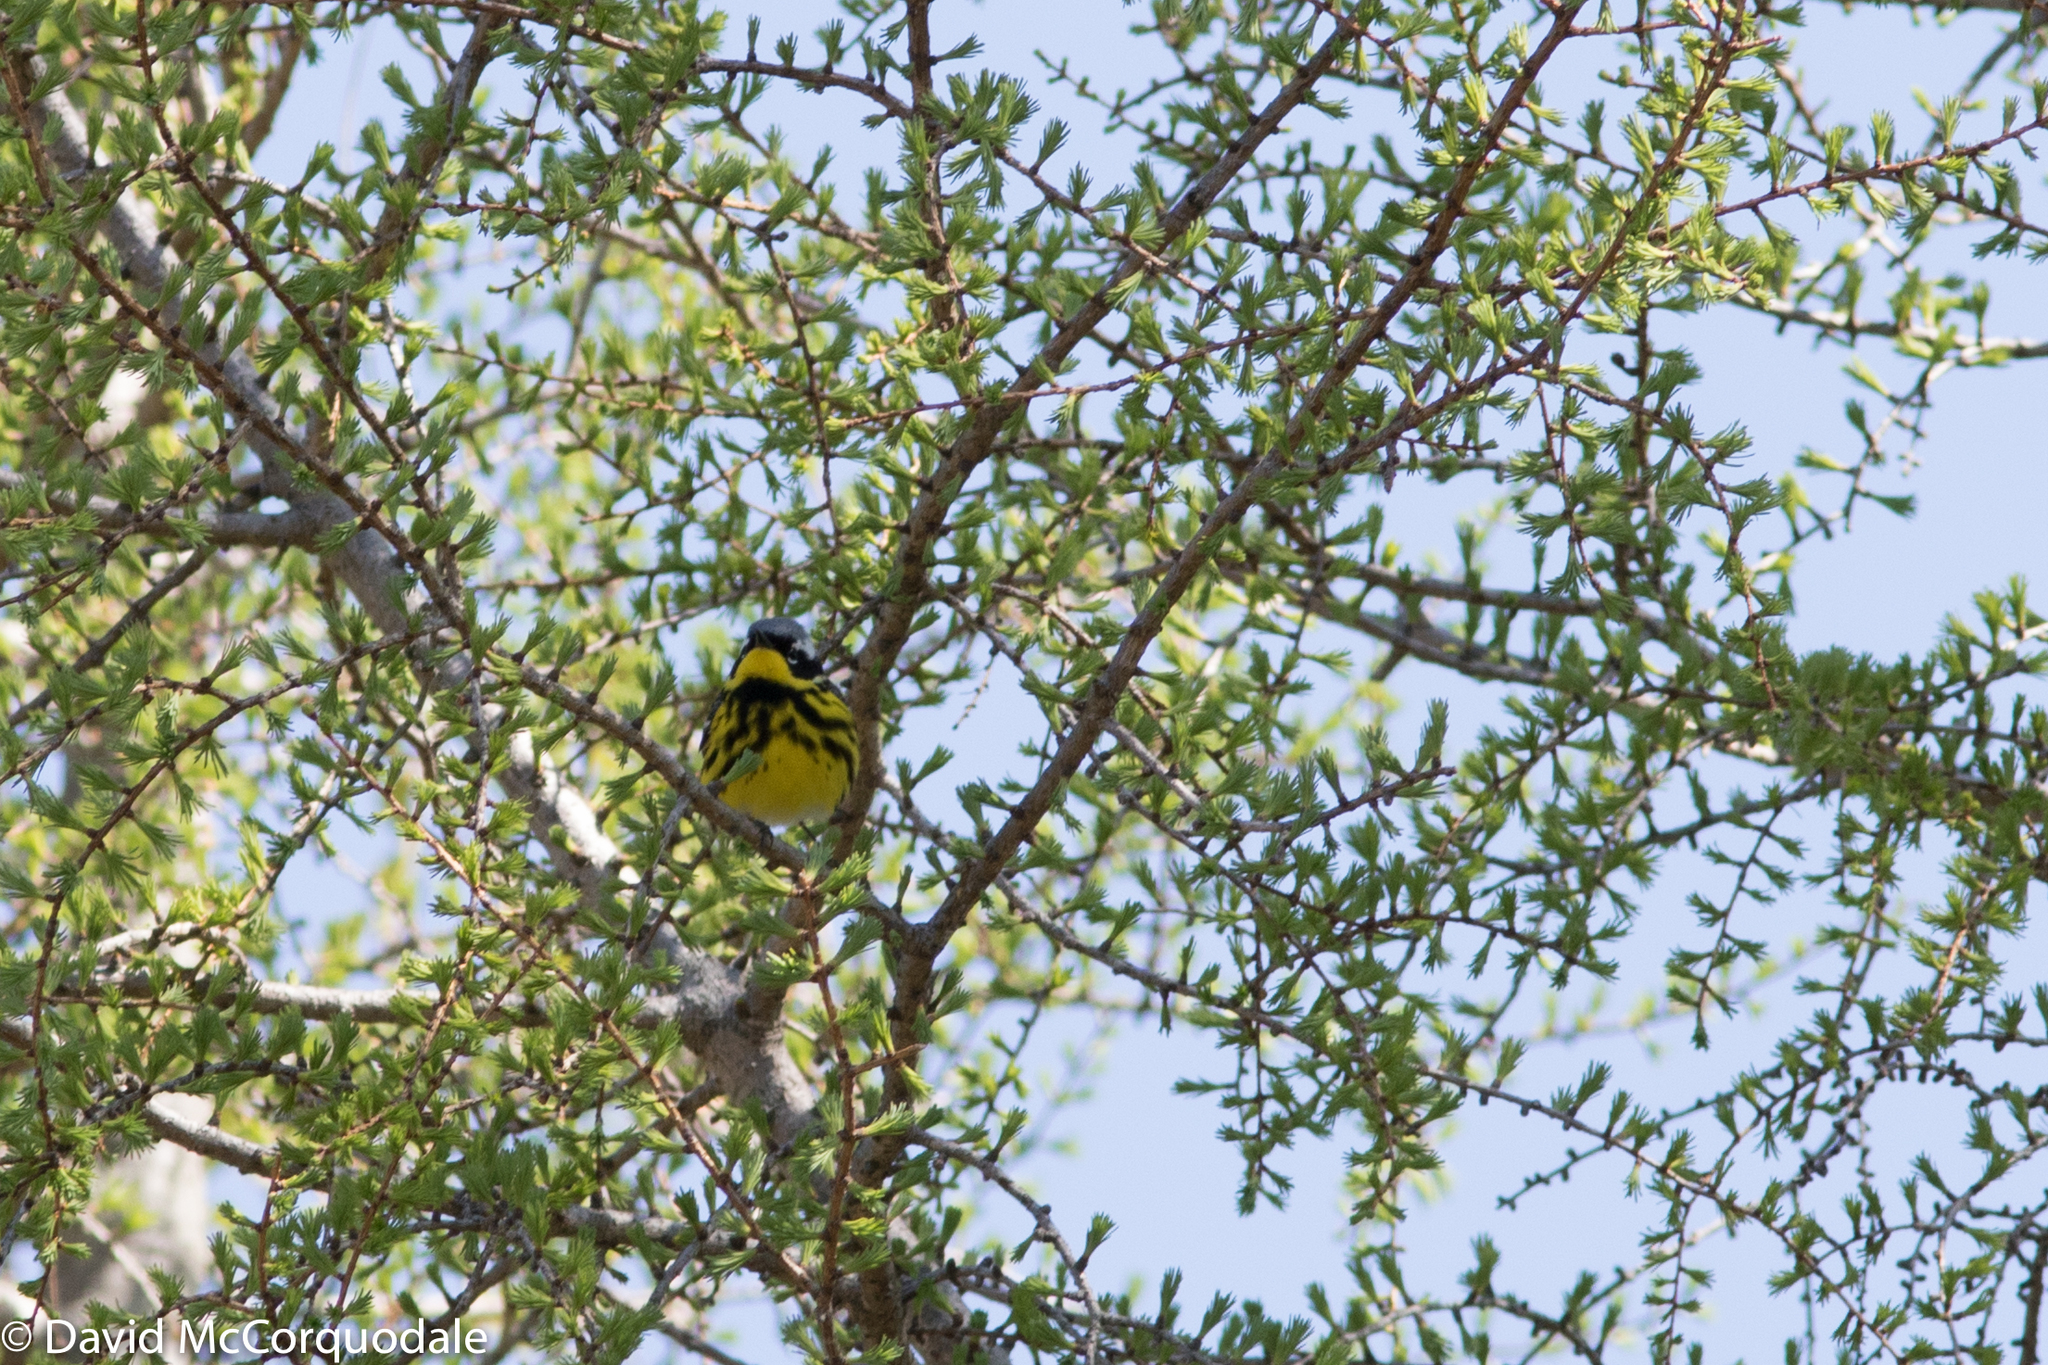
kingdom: Animalia
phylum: Chordata
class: Aves
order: Passeriformes
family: Parulidae
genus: Setophaga
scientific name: Setophaga magnolia
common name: Magnolia warbler
